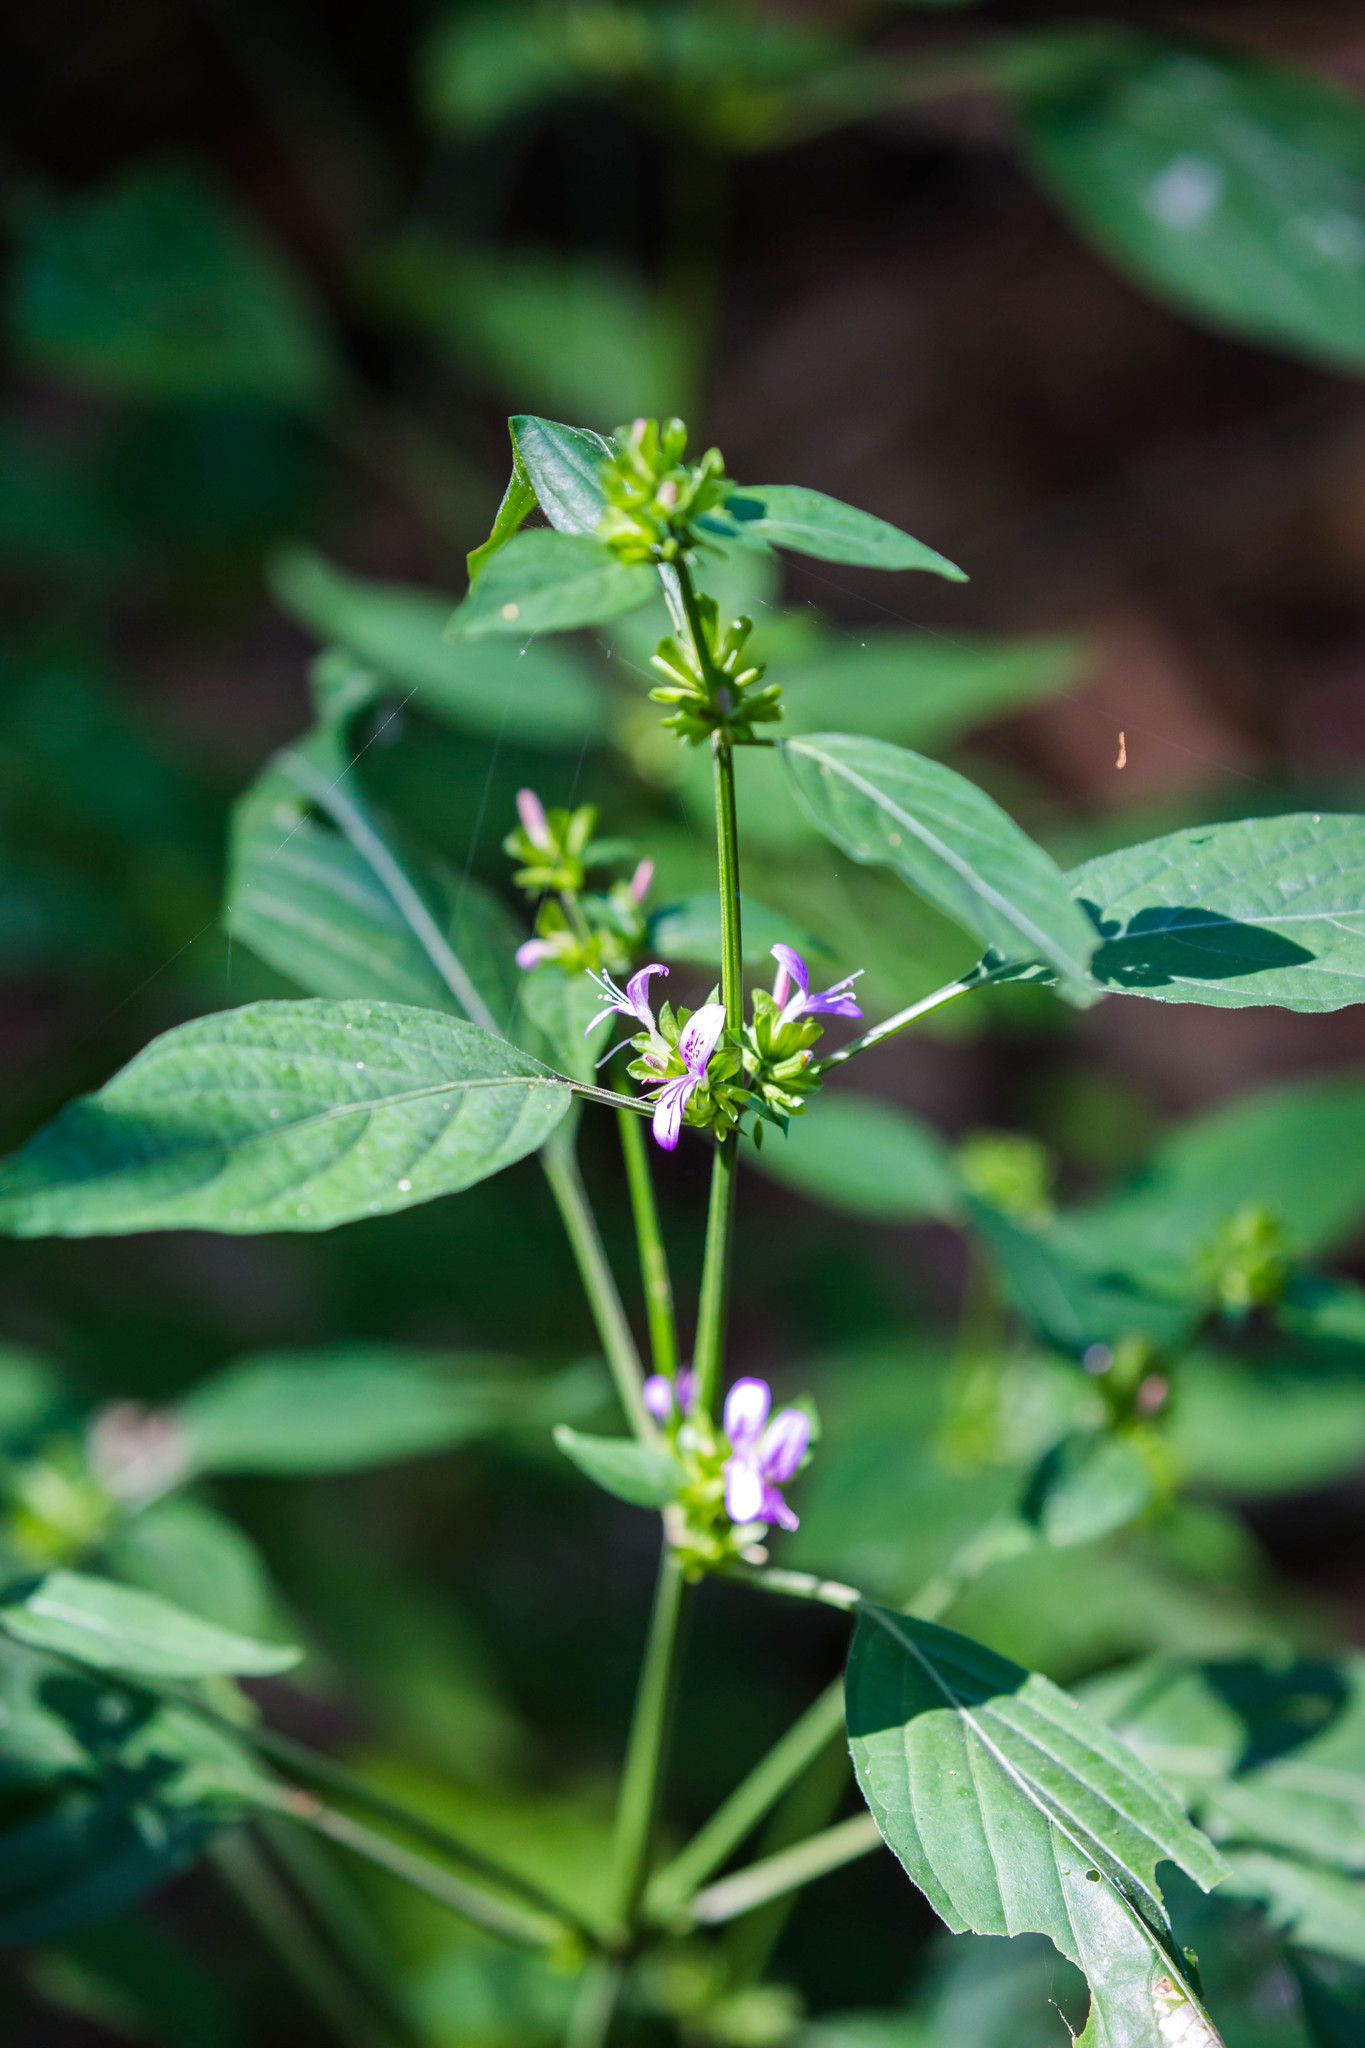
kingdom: Plantae
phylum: Tracheophyta
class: Magnoliopsida
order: Lamiales
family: Acanthaceae
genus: Dicliptera
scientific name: Dicliptera brachiata
